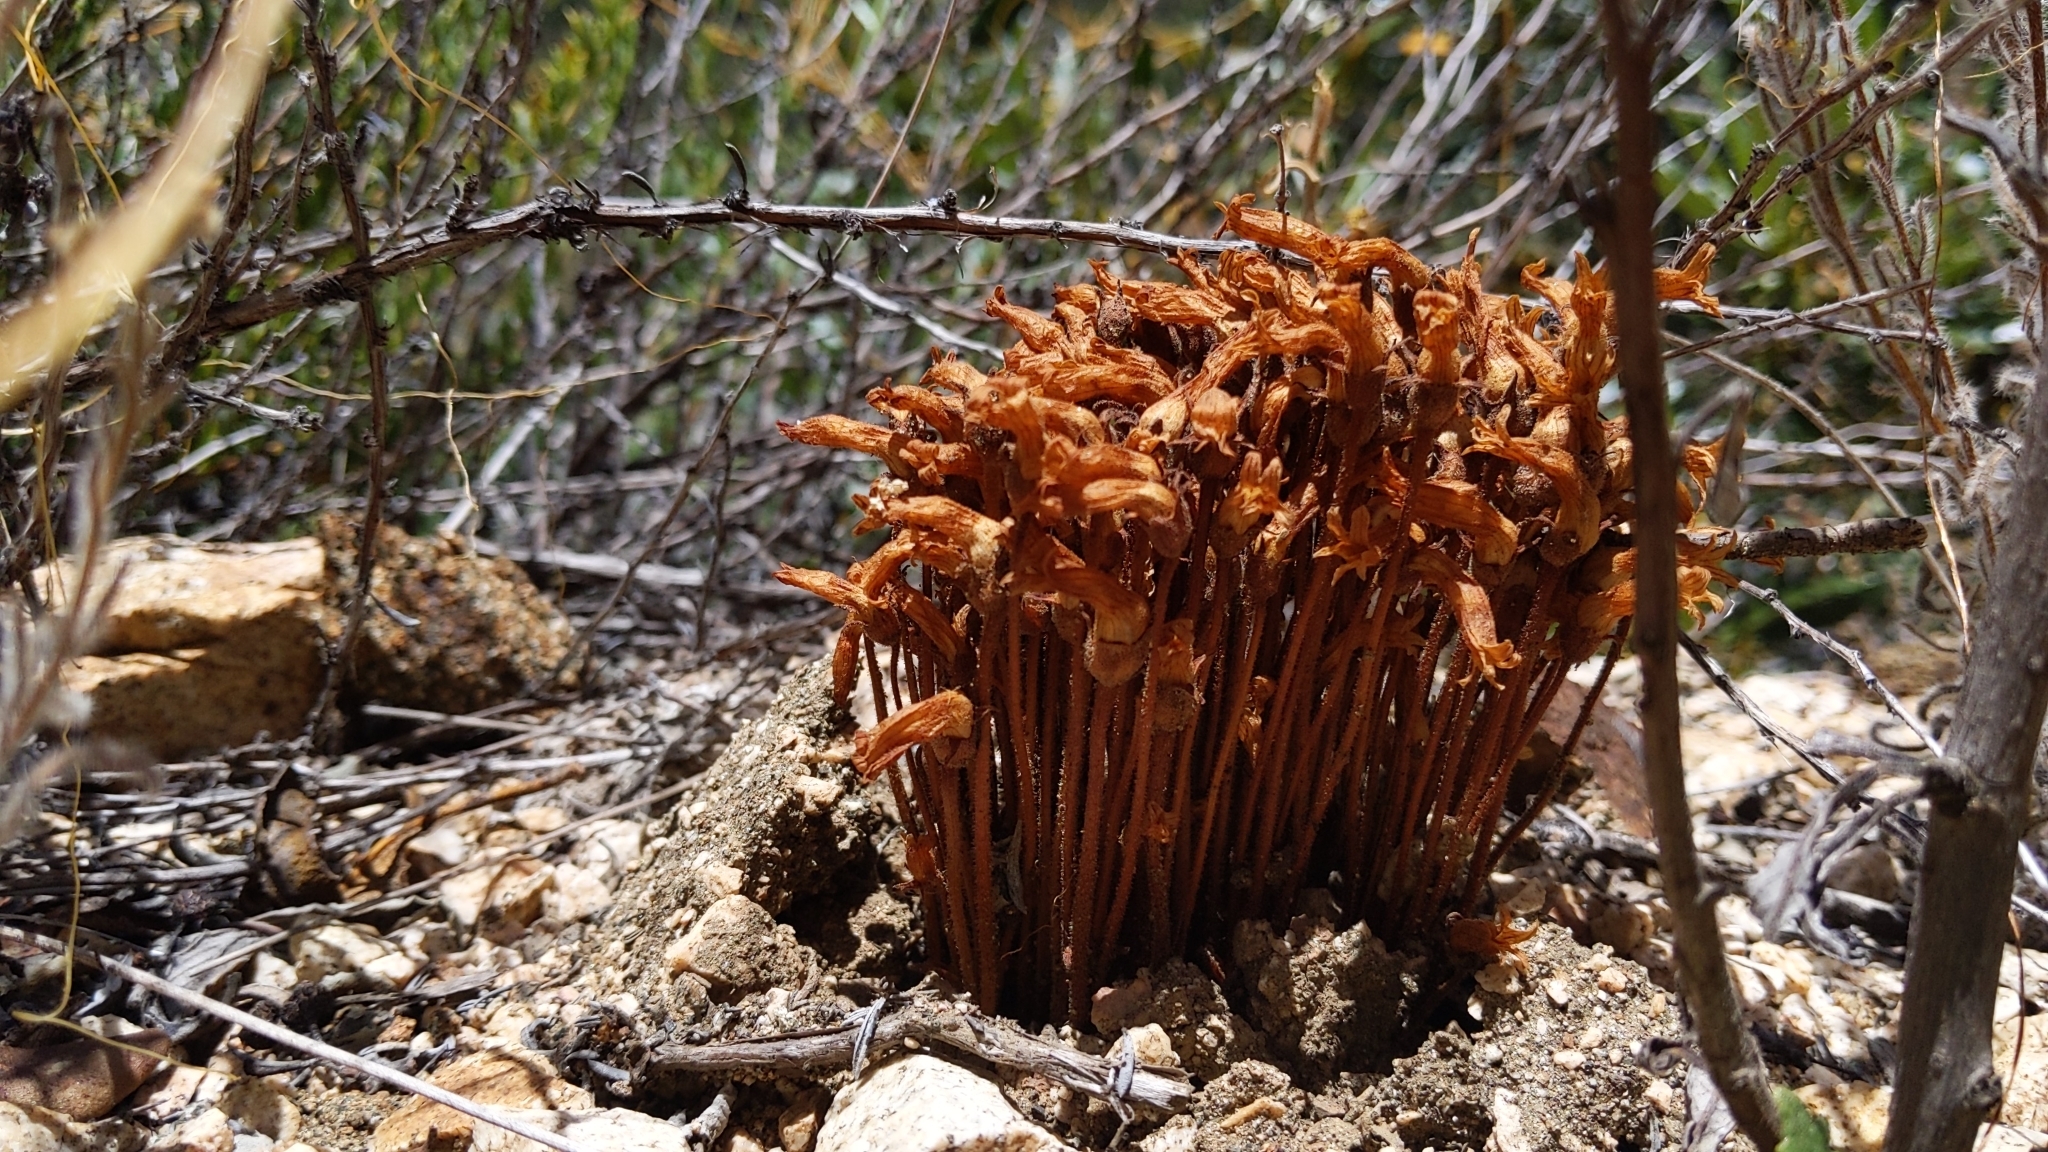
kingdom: Plantae
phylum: Tracheophyta
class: Magnoliopsida
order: Lamiales
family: Orobanchaceae
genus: Aphyllon
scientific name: Aphyllon franciscanum
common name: San francisco broomrape
